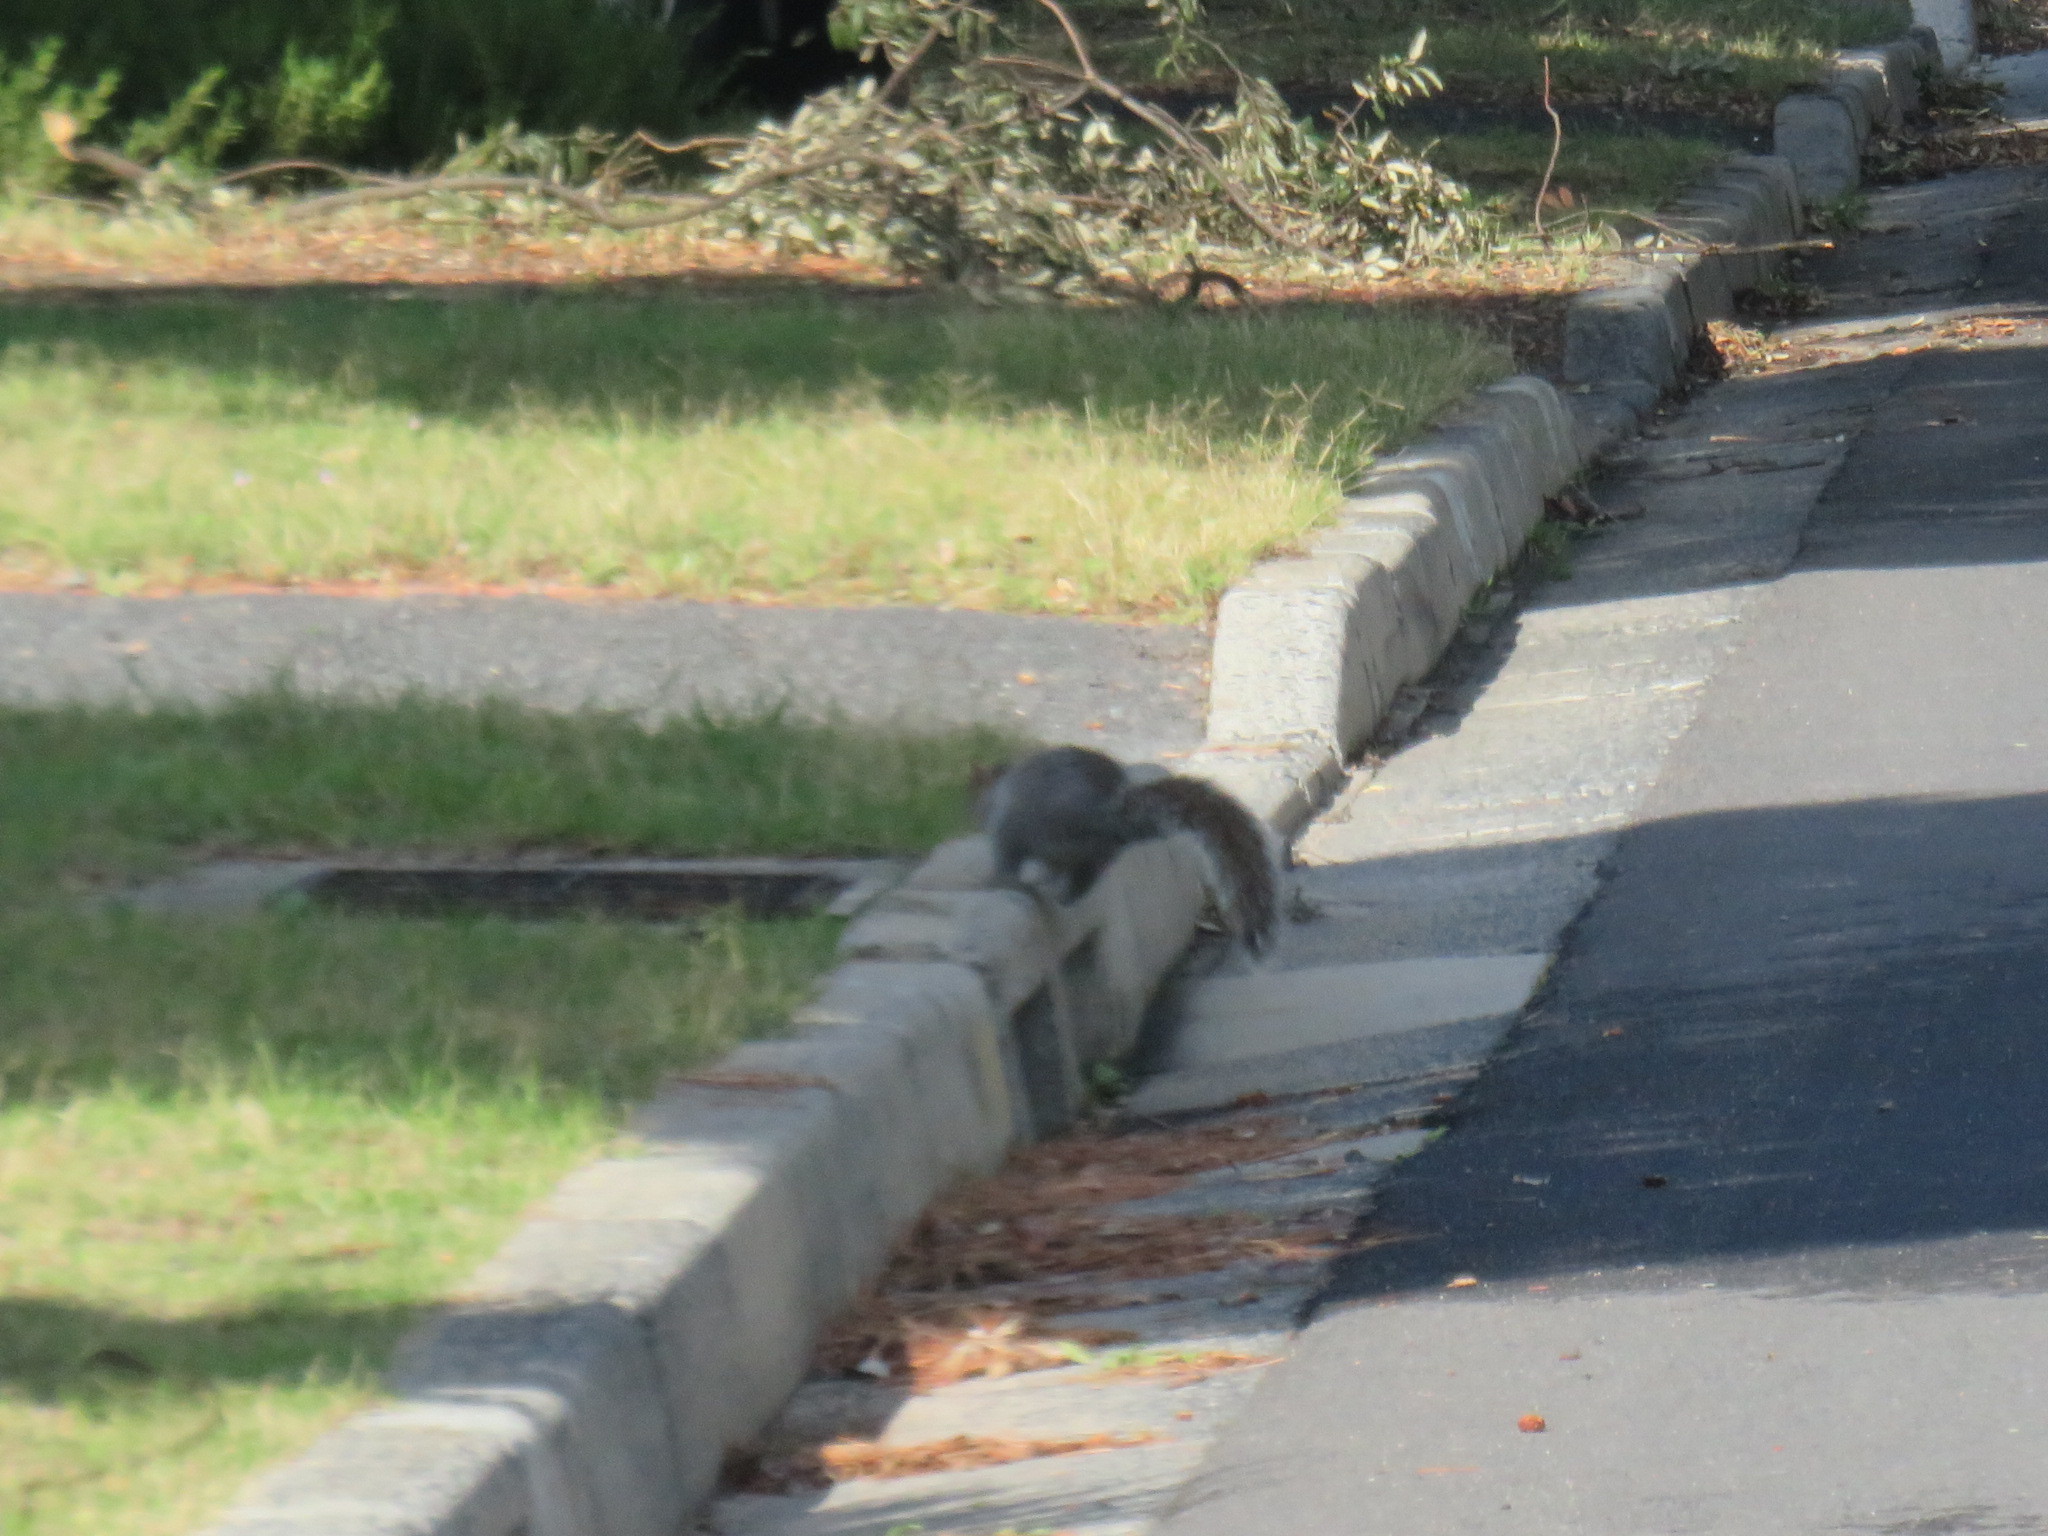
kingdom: Animalia
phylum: Chordata
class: Mammalia
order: Rodentia
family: Sciuridae
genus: Sciurus
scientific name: Sciurus carolinensis
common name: Eastern gray squirrel
